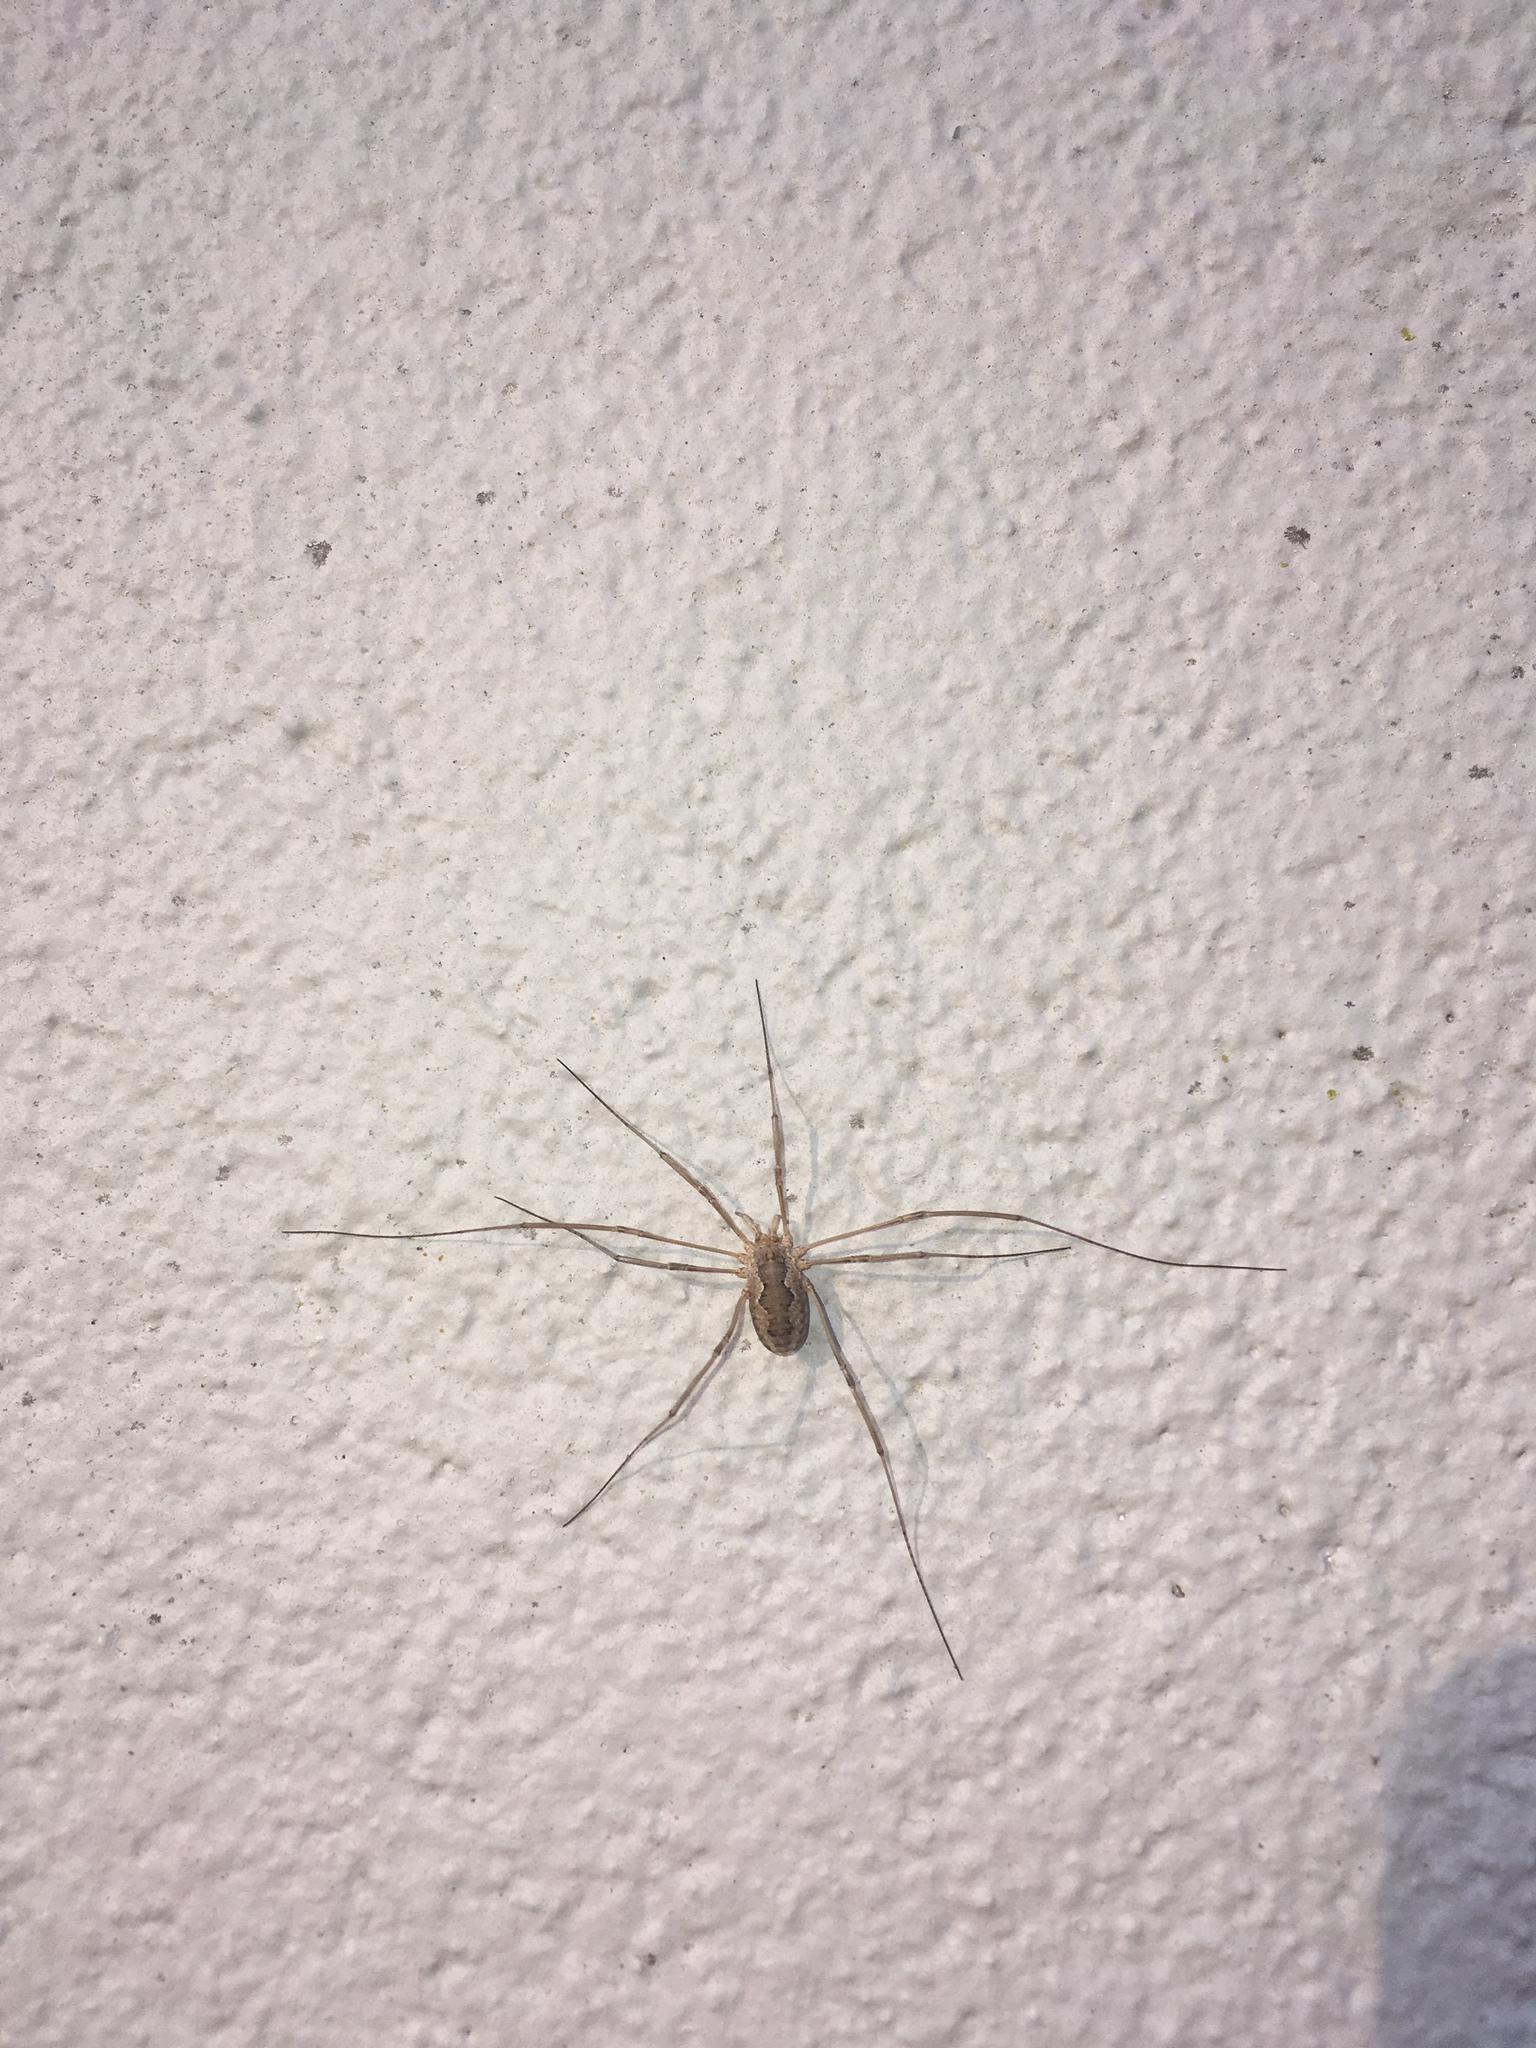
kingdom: Animalia
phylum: Arthropoda
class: Arachnida
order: Opiliones
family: Phalangiidae
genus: Phalangium
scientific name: Phalangium opilio
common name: Daddy longleg
